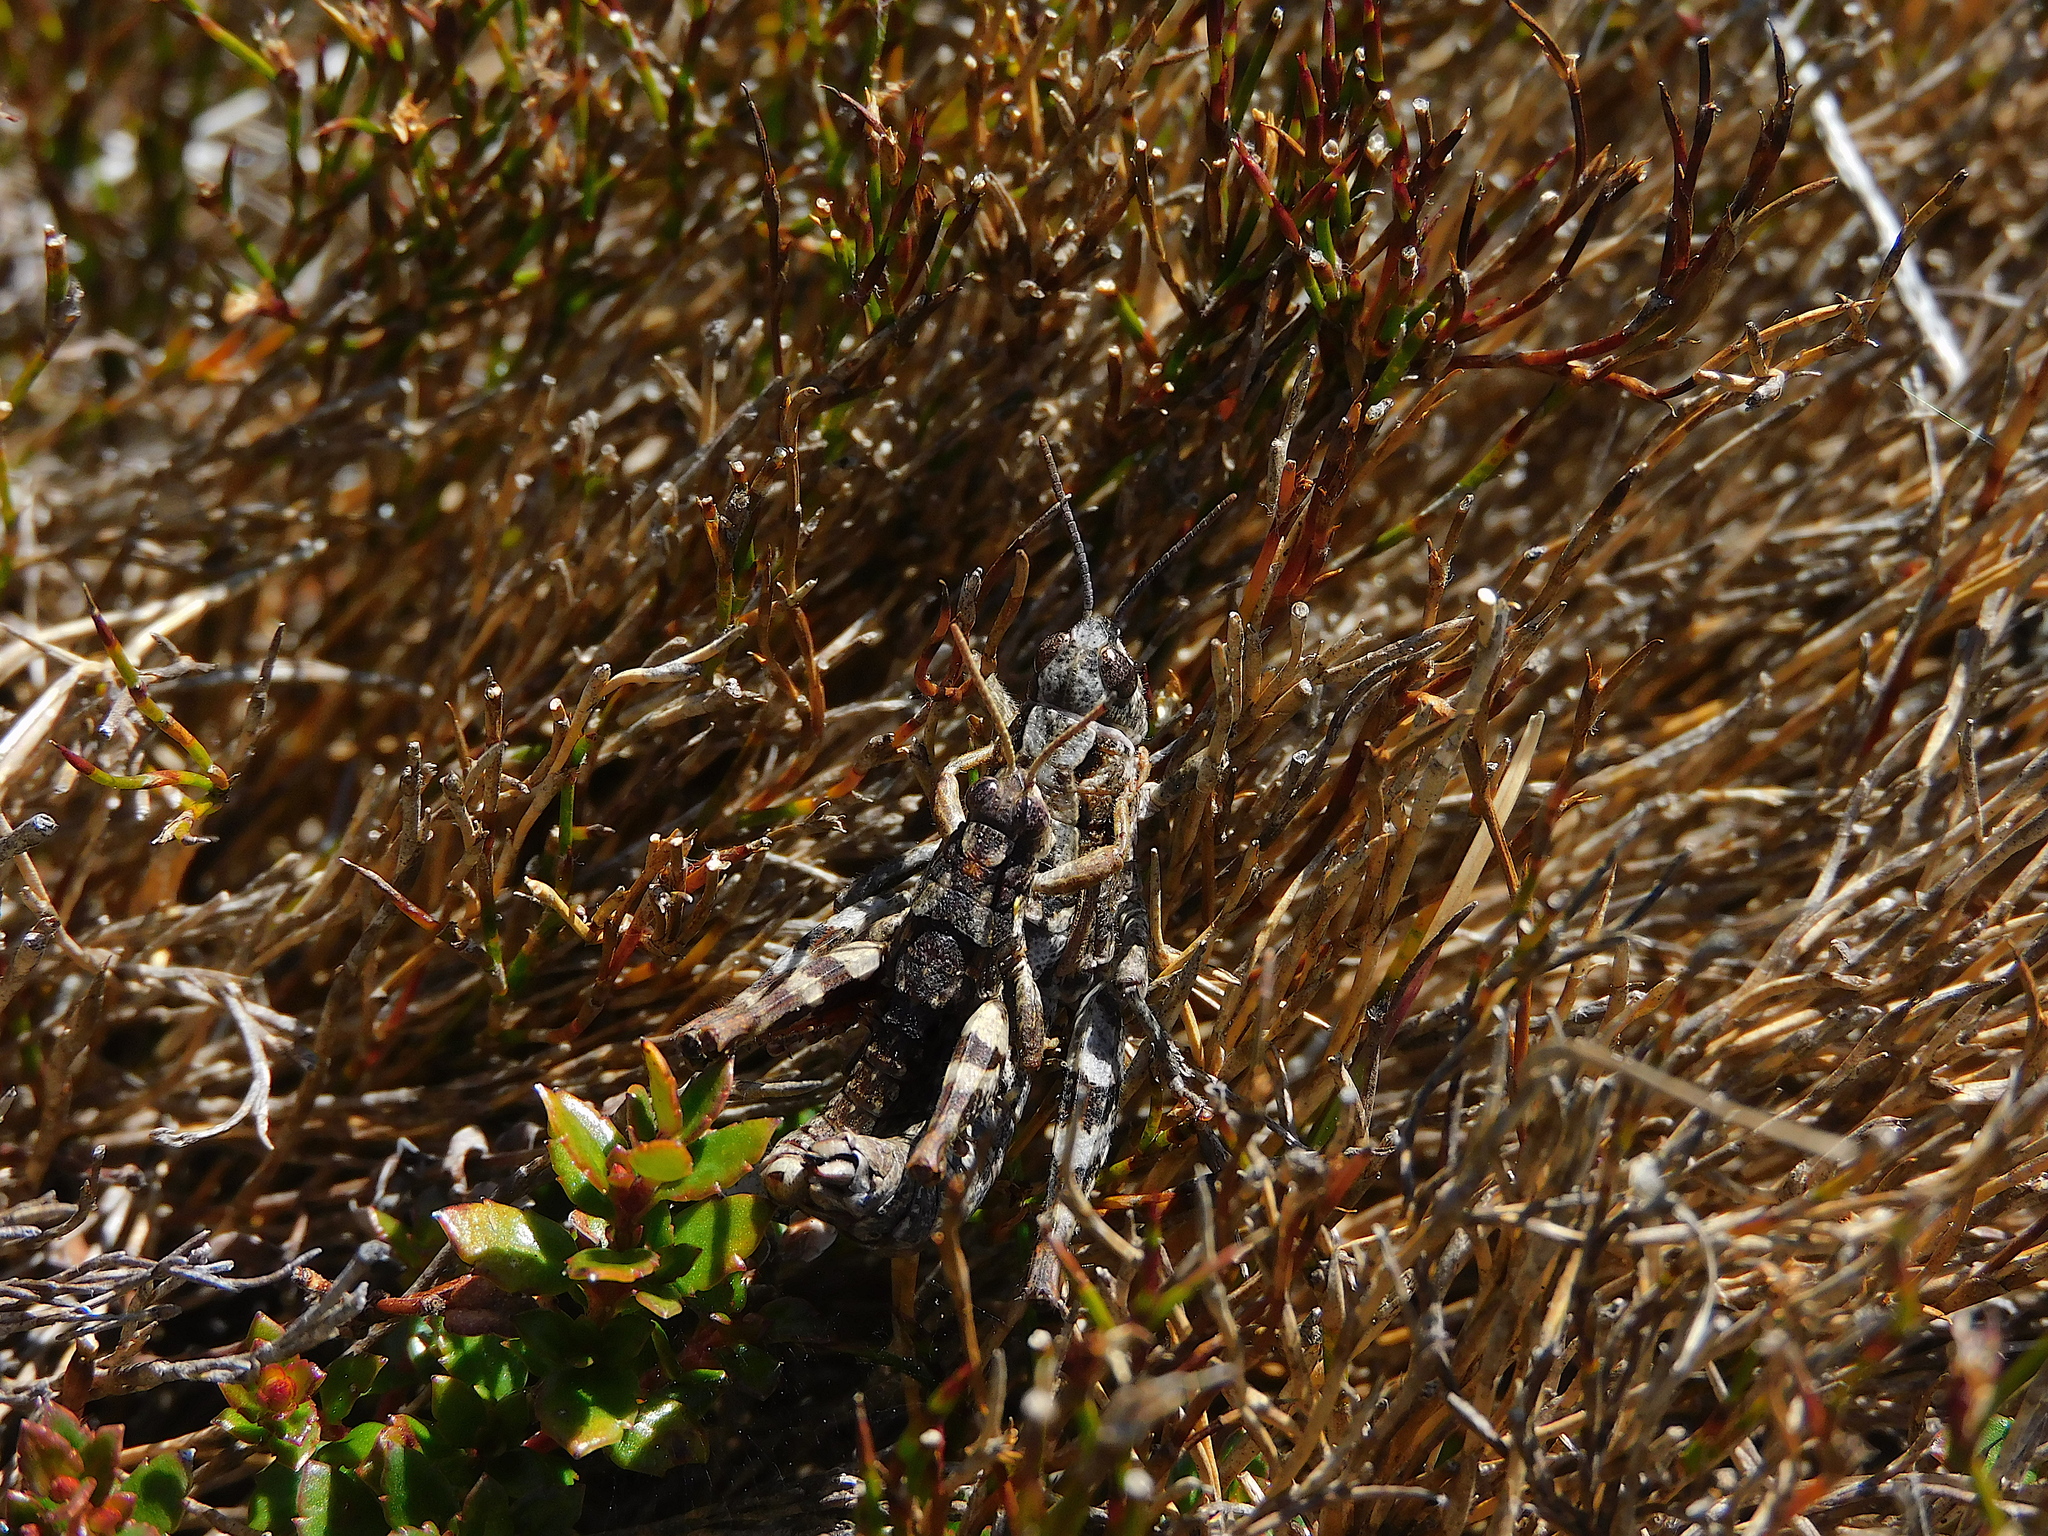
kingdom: Animalia
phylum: Arthropoda
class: Insecta
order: Orthoptera
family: Acrididae
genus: Tasmaniacris
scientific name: Tasmaniacris tasmaniensis
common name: Tasmanian grasshopper
